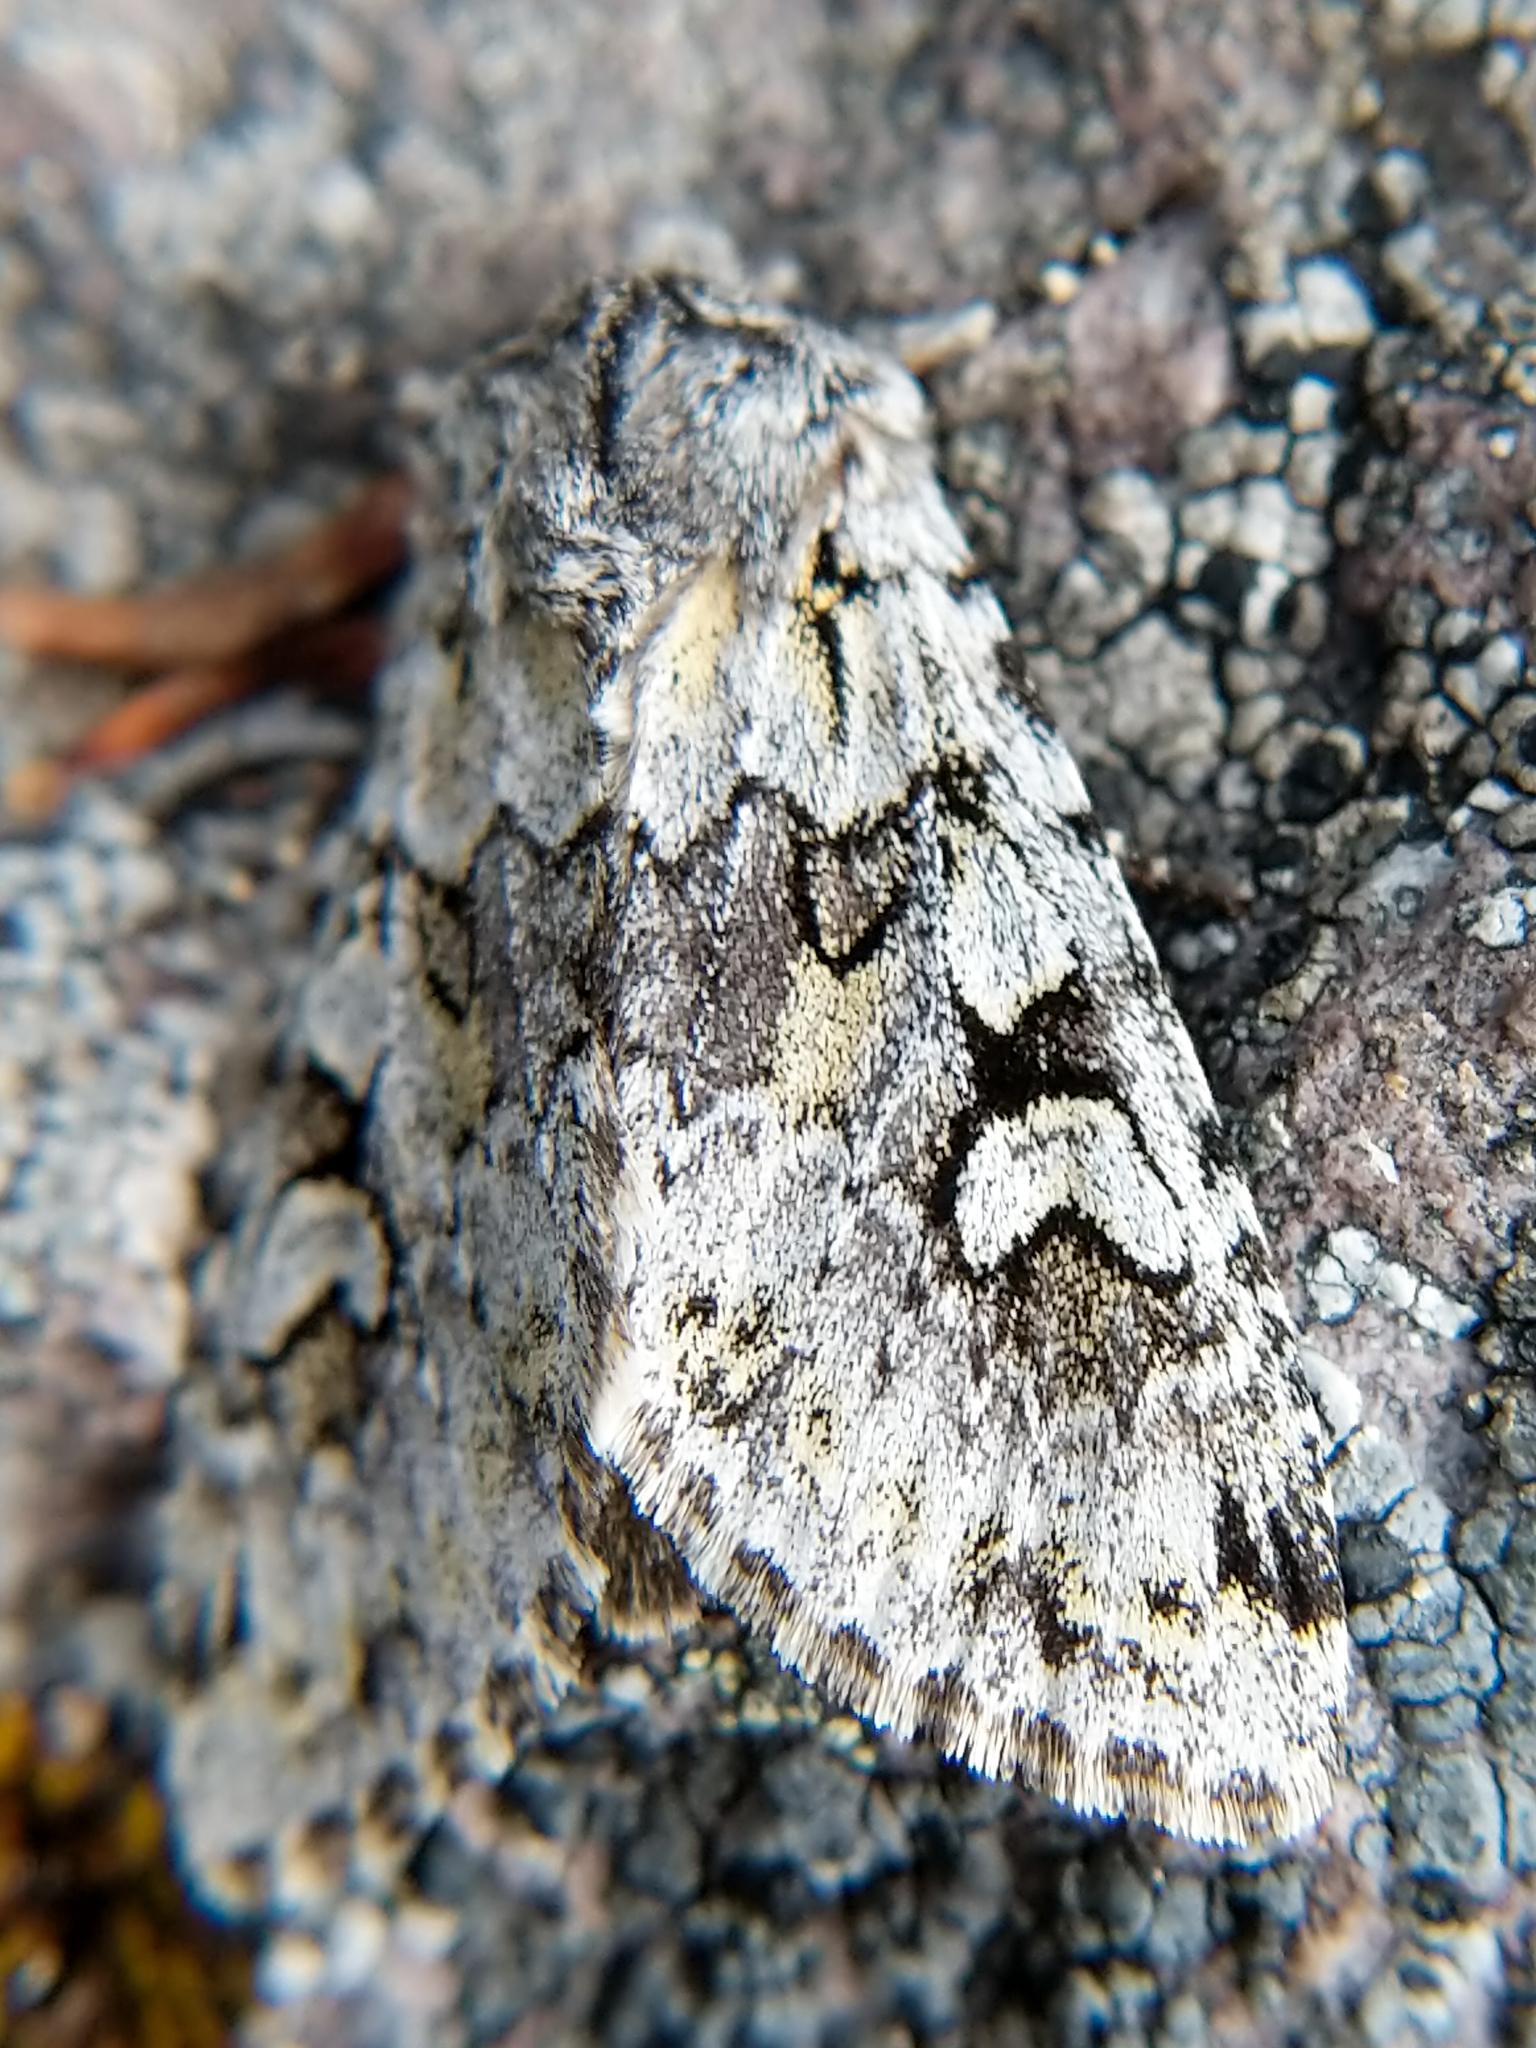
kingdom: Animalia
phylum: Arthropoda
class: Insecta
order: Lepidoptera
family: Noctuidae
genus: Lasionycta
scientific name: Lasionycta mutilata
